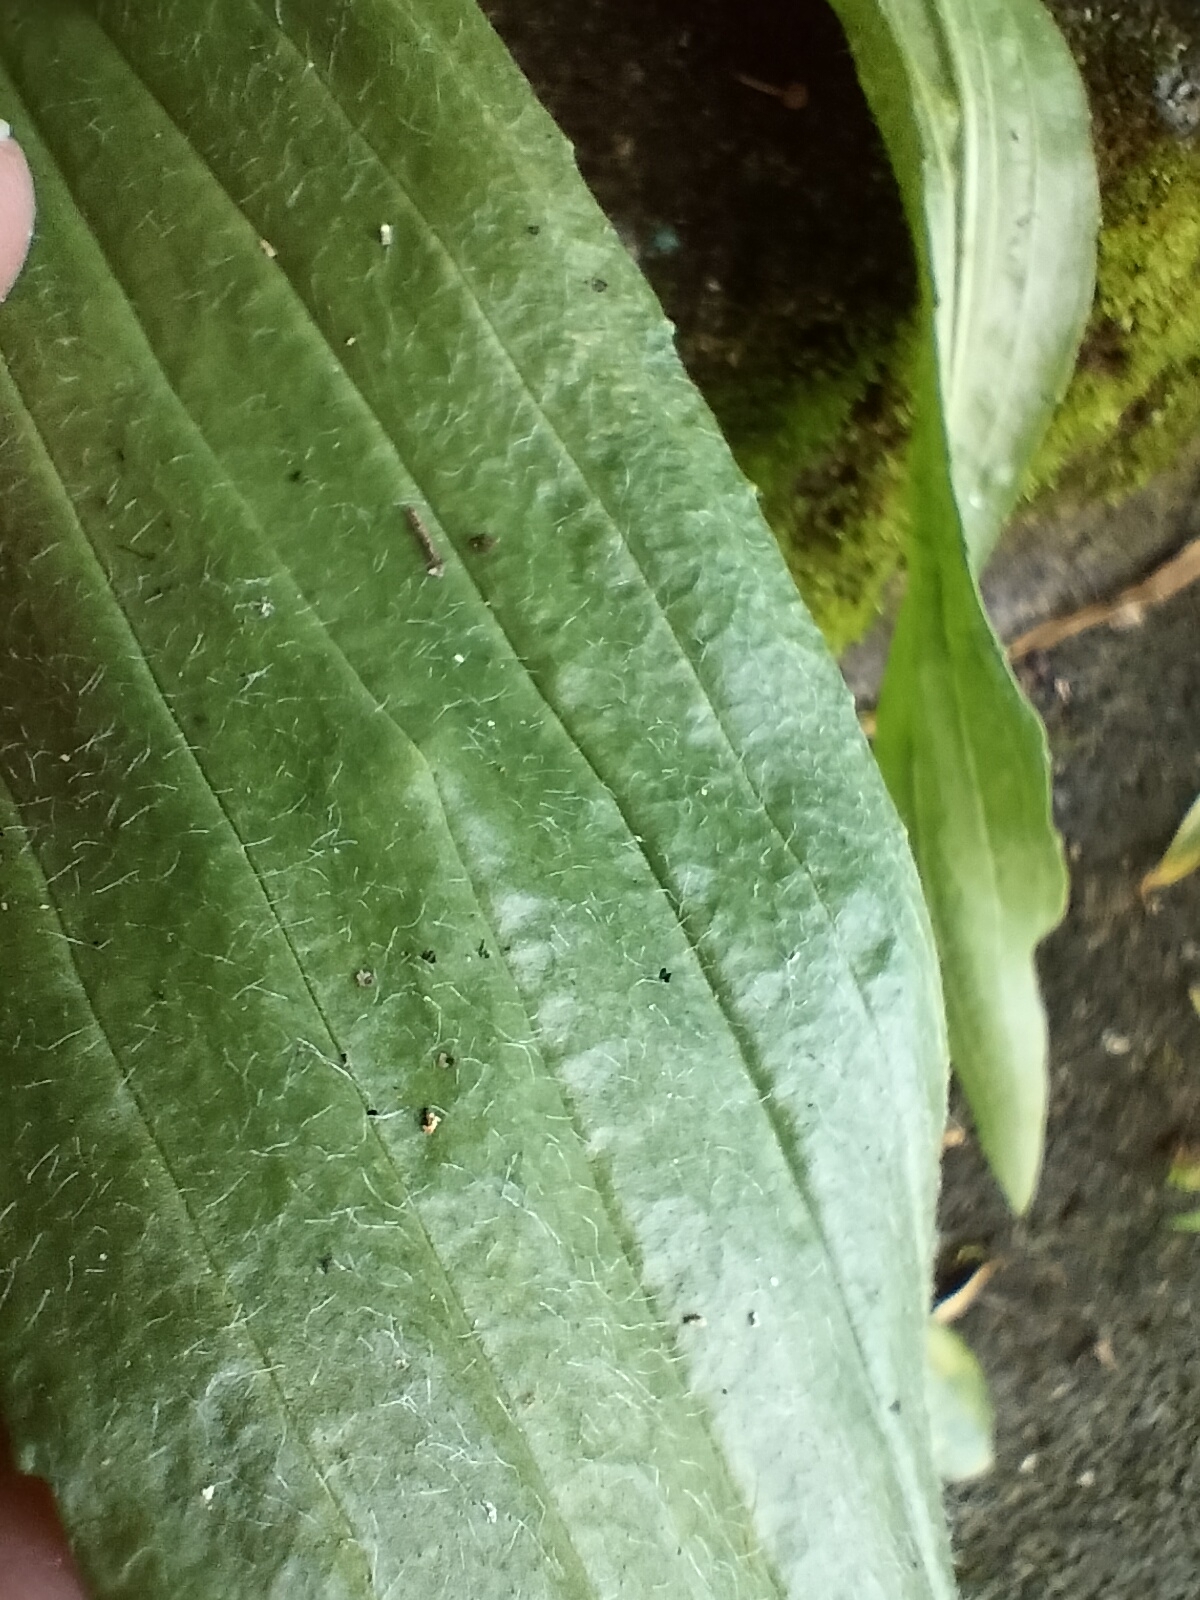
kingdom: Plantae
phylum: Tracheophyta
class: Magnoliopsida
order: Lamiales
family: Plantaginaceae
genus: Plantago
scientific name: Plantago australis
